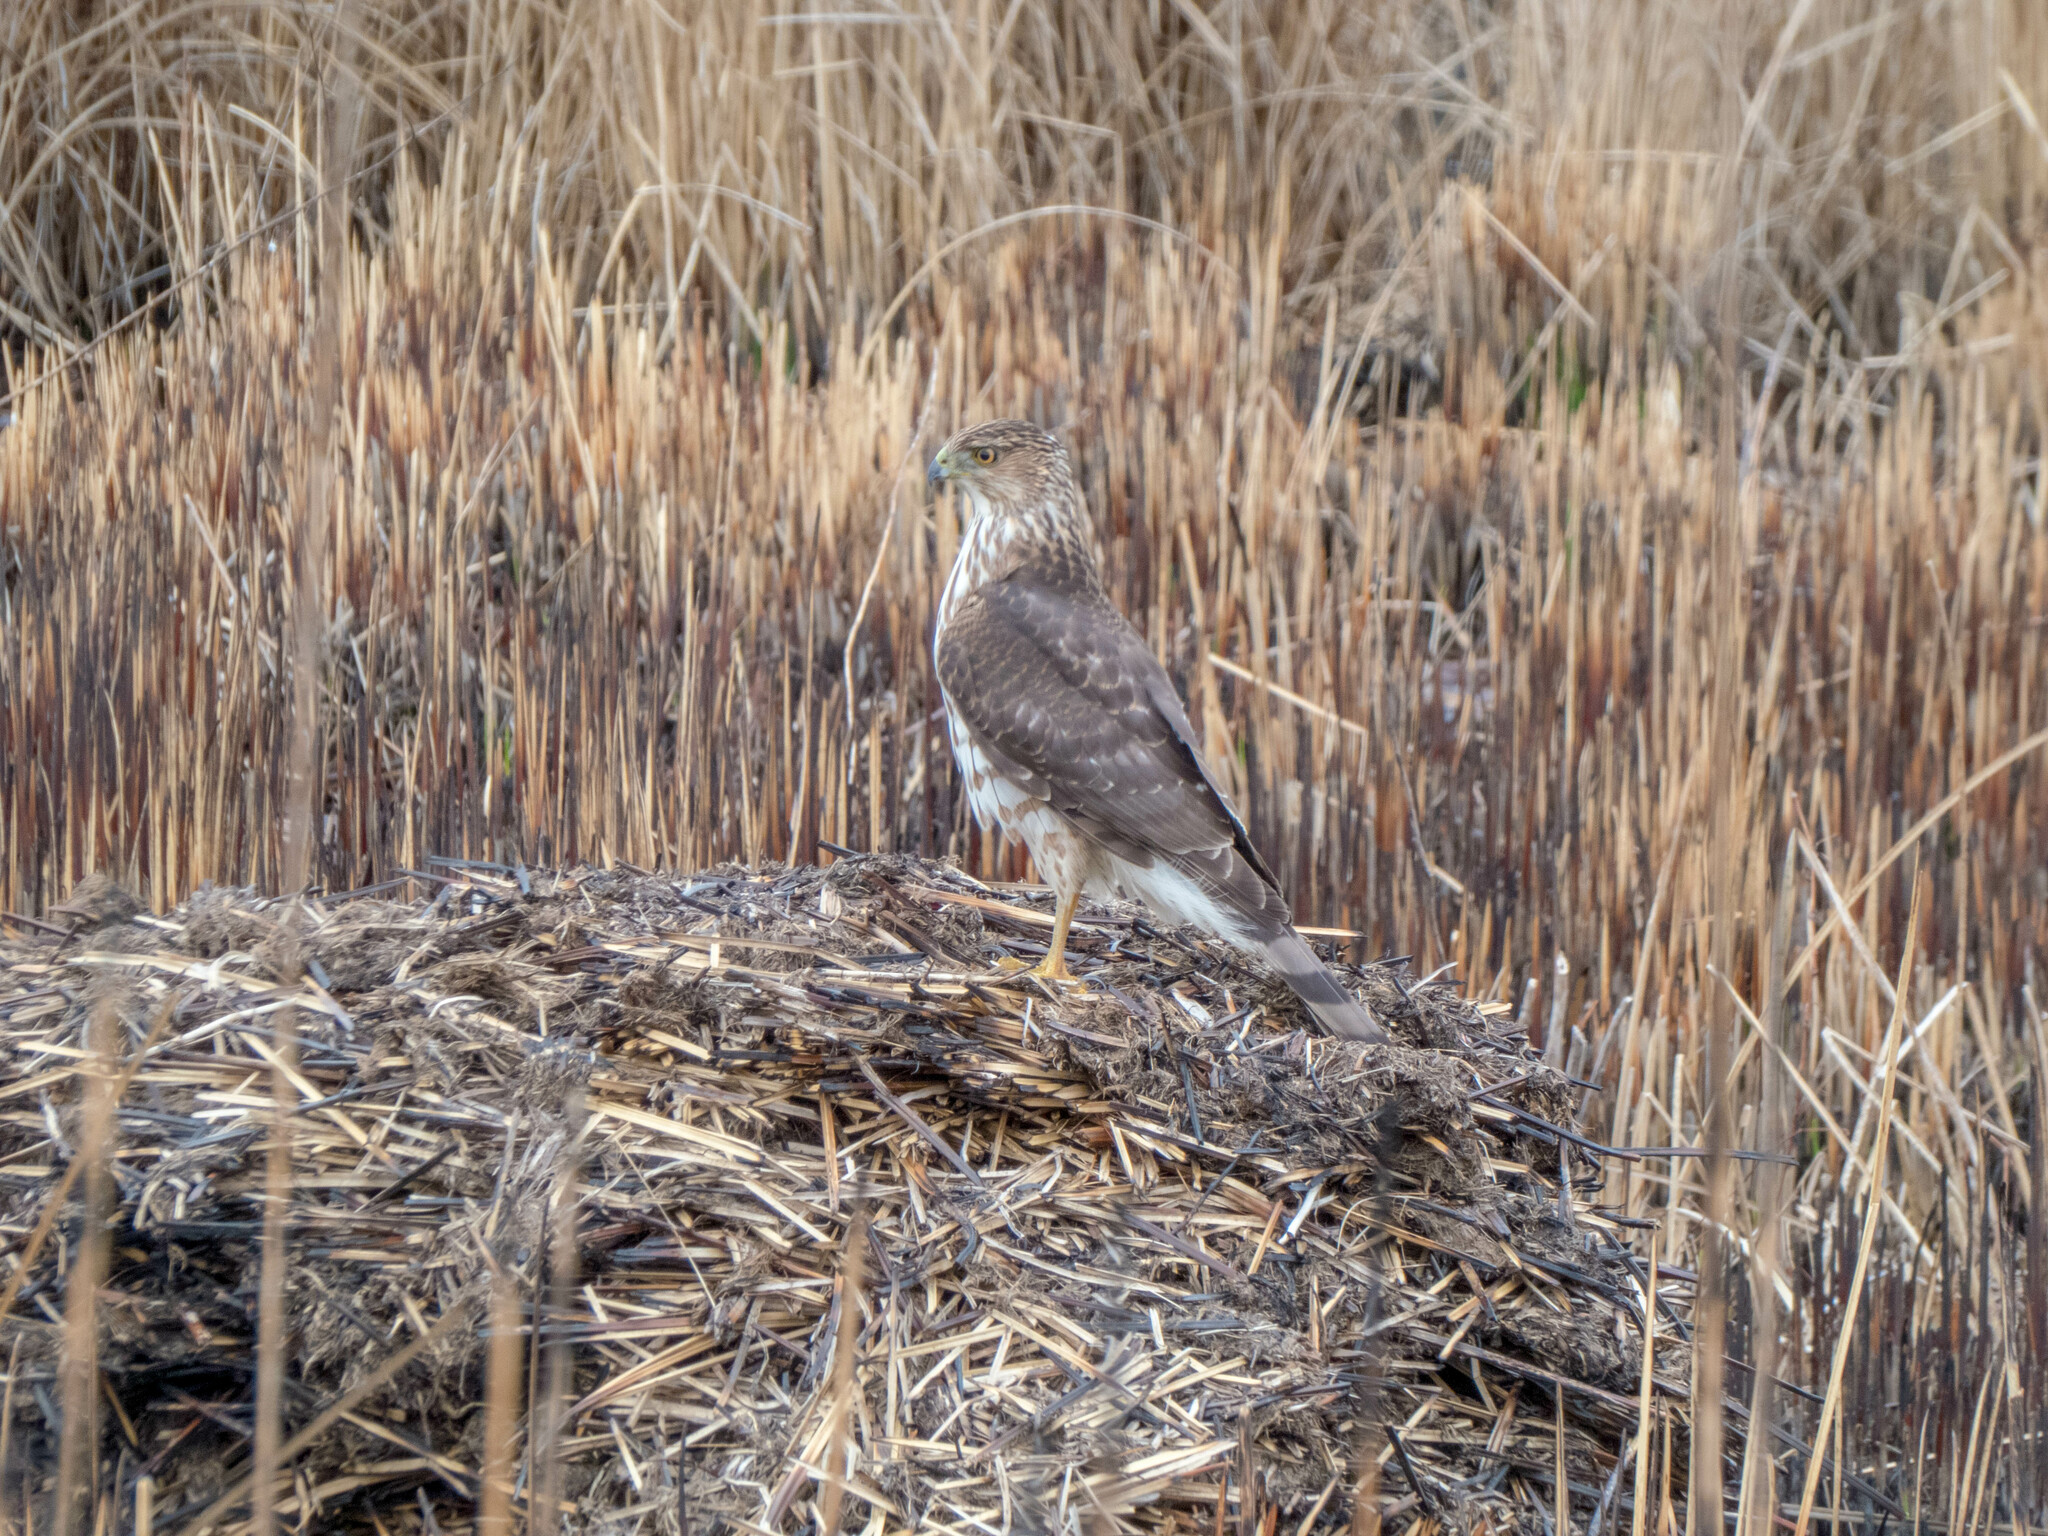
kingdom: Animalia
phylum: Chordata
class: Aves
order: Accipitriformes
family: Accipitridae
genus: Accipiter
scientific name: Accipiter cooperii
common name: Cooper's hawk
